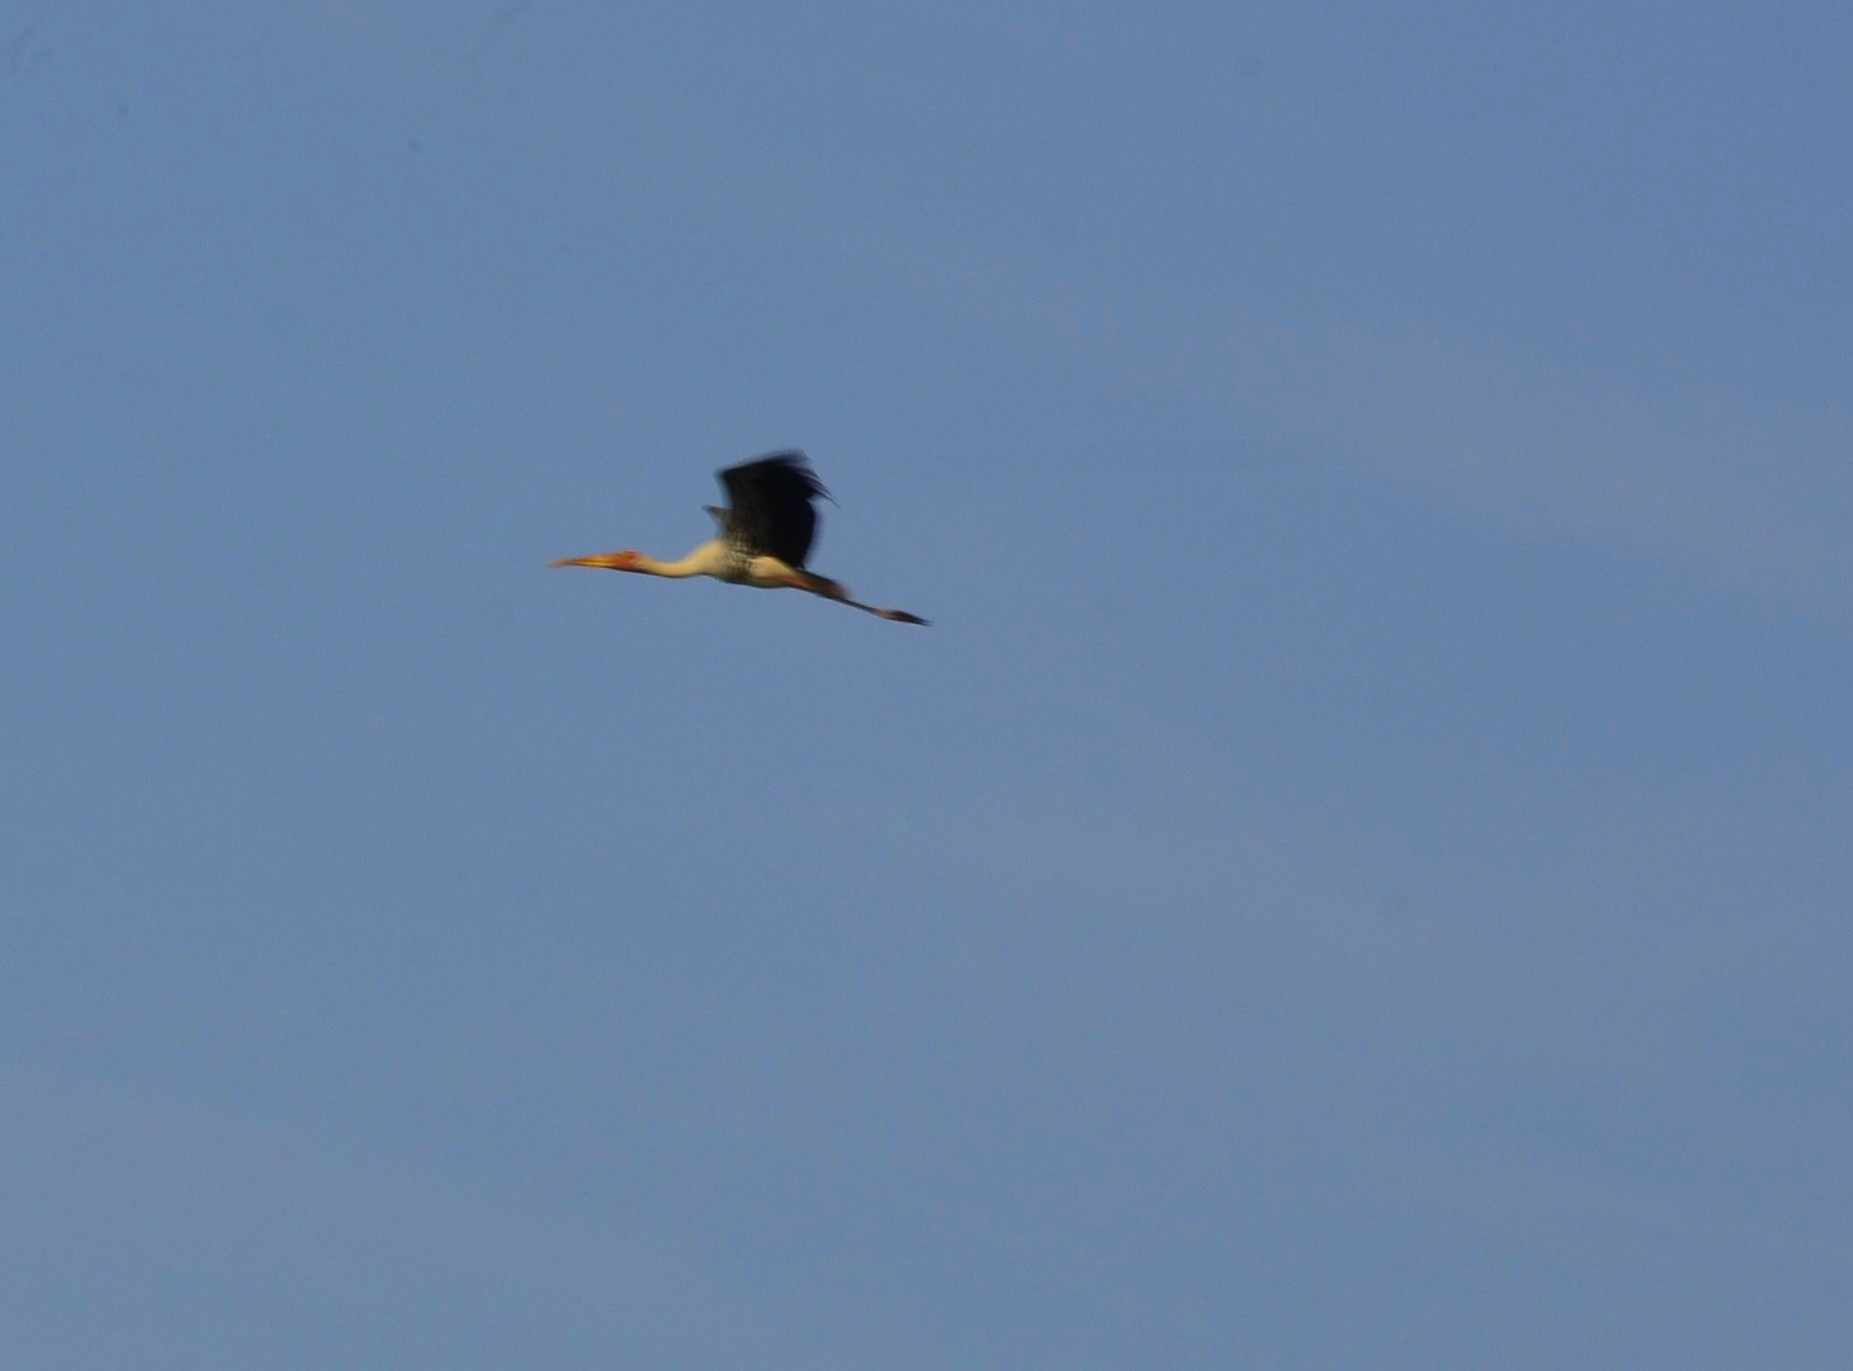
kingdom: Animalia
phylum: Chordata
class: Aves
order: Ciconiiformes
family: Ciconiidae
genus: Mycteria
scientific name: Mycteria leucocephala
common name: Painted stork
